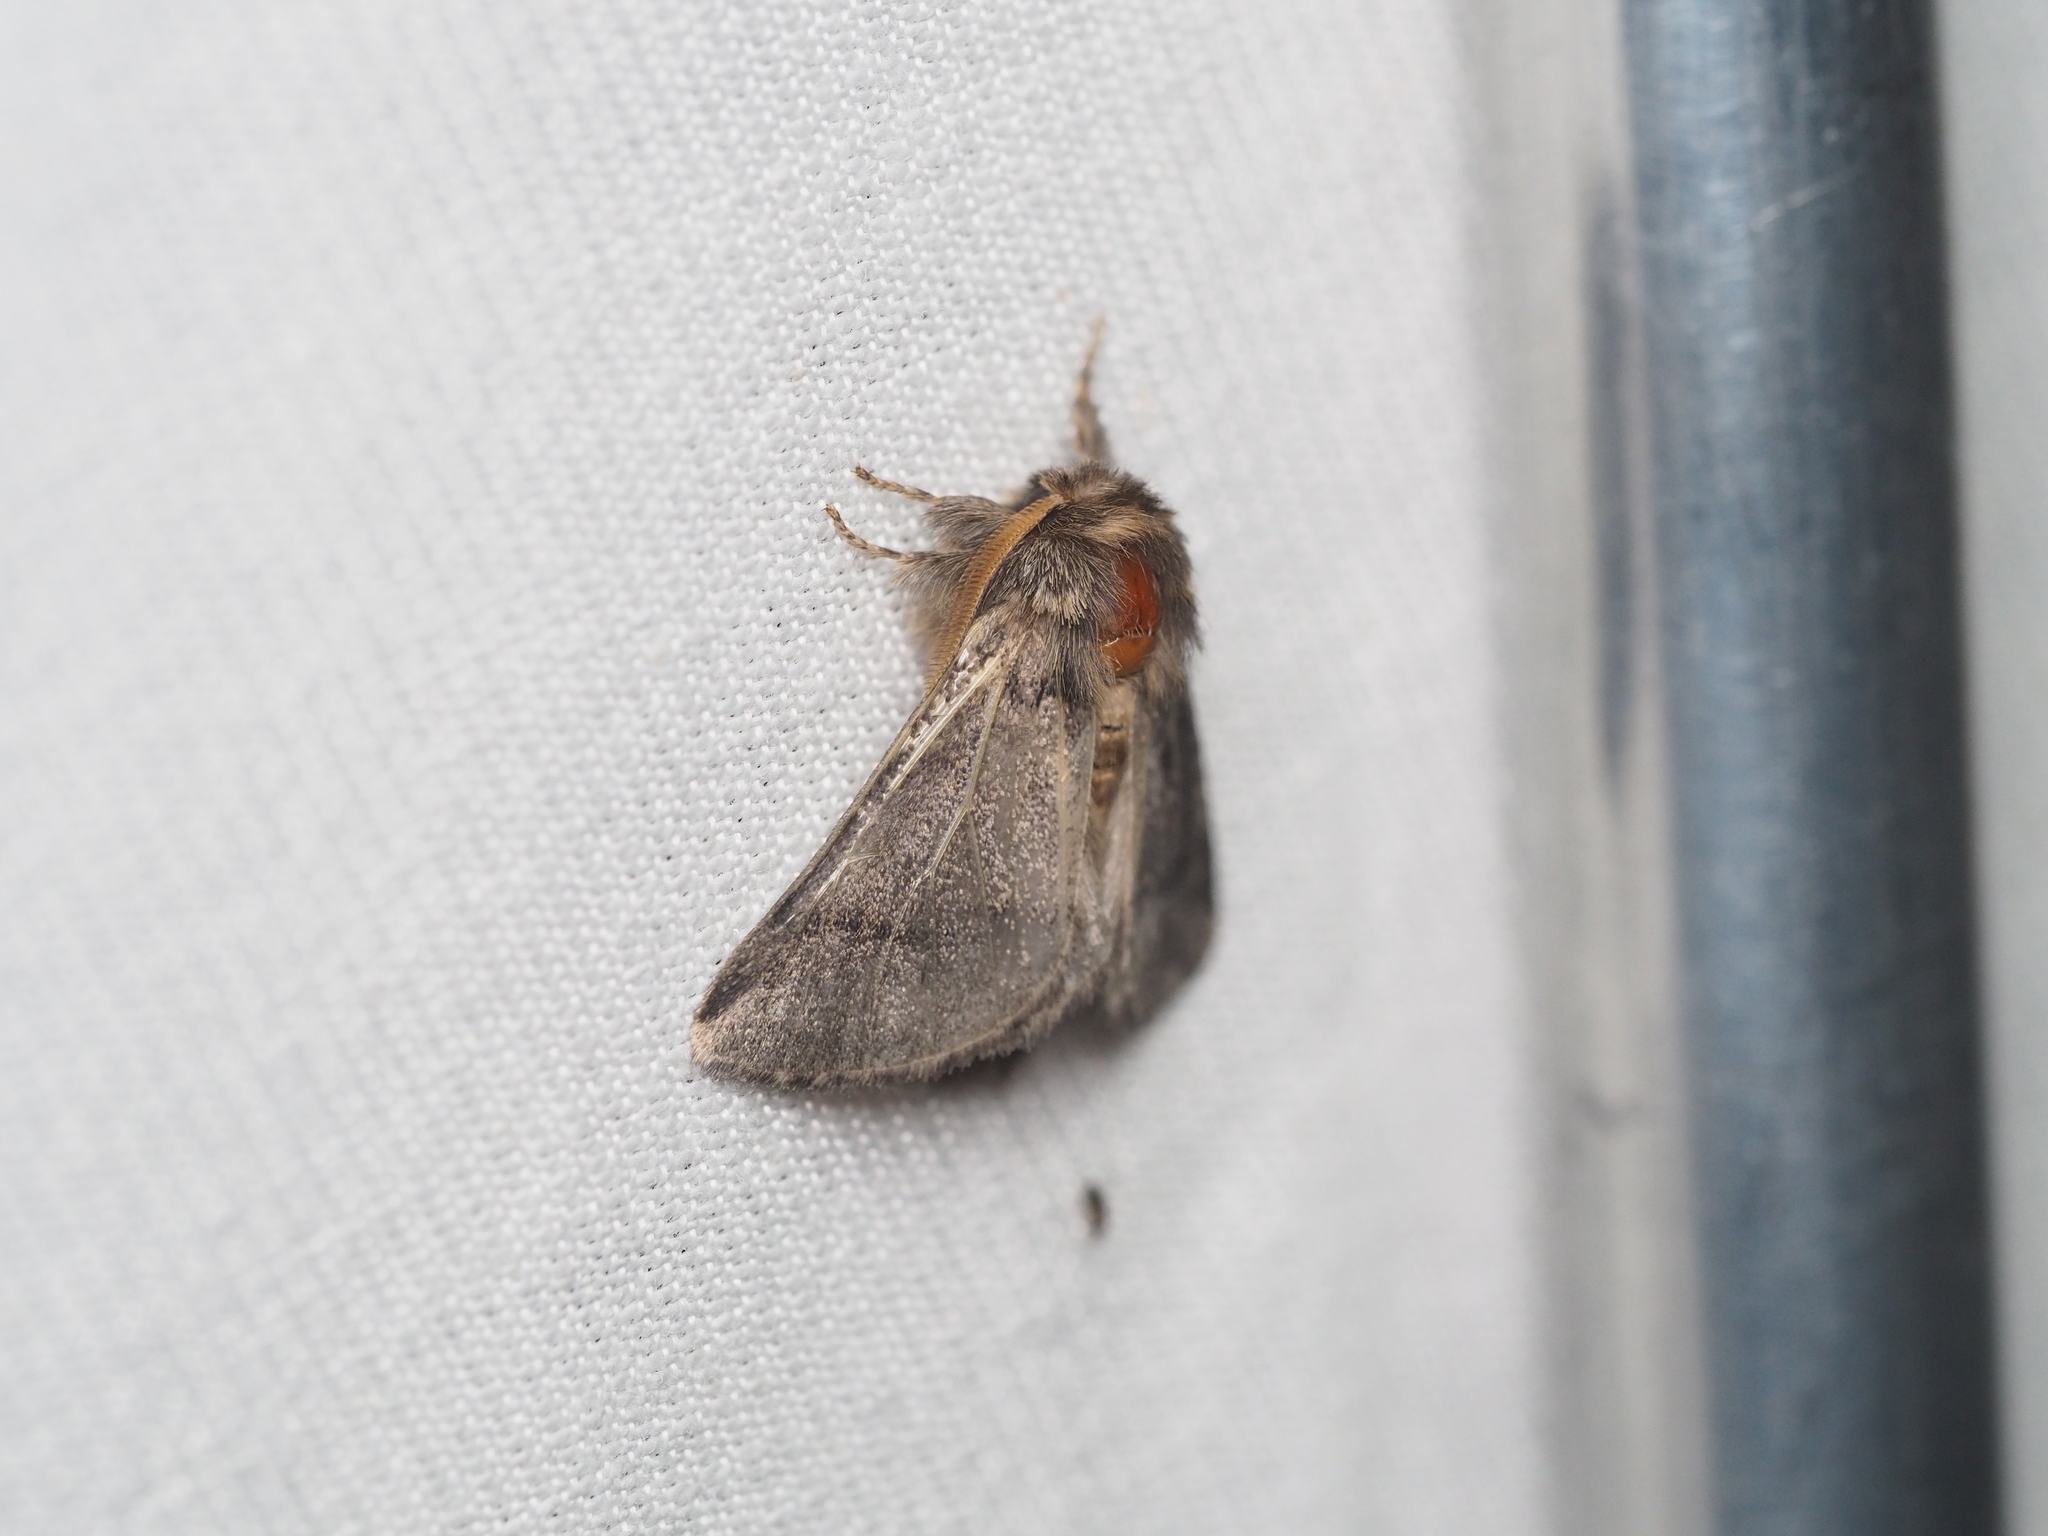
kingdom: Animalia
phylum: Arthropoda
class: Insecta
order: Lepidoptera
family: Notodontidae
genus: Thaumetopoea
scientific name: Thaumetopoea processionea
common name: Oak processionea
